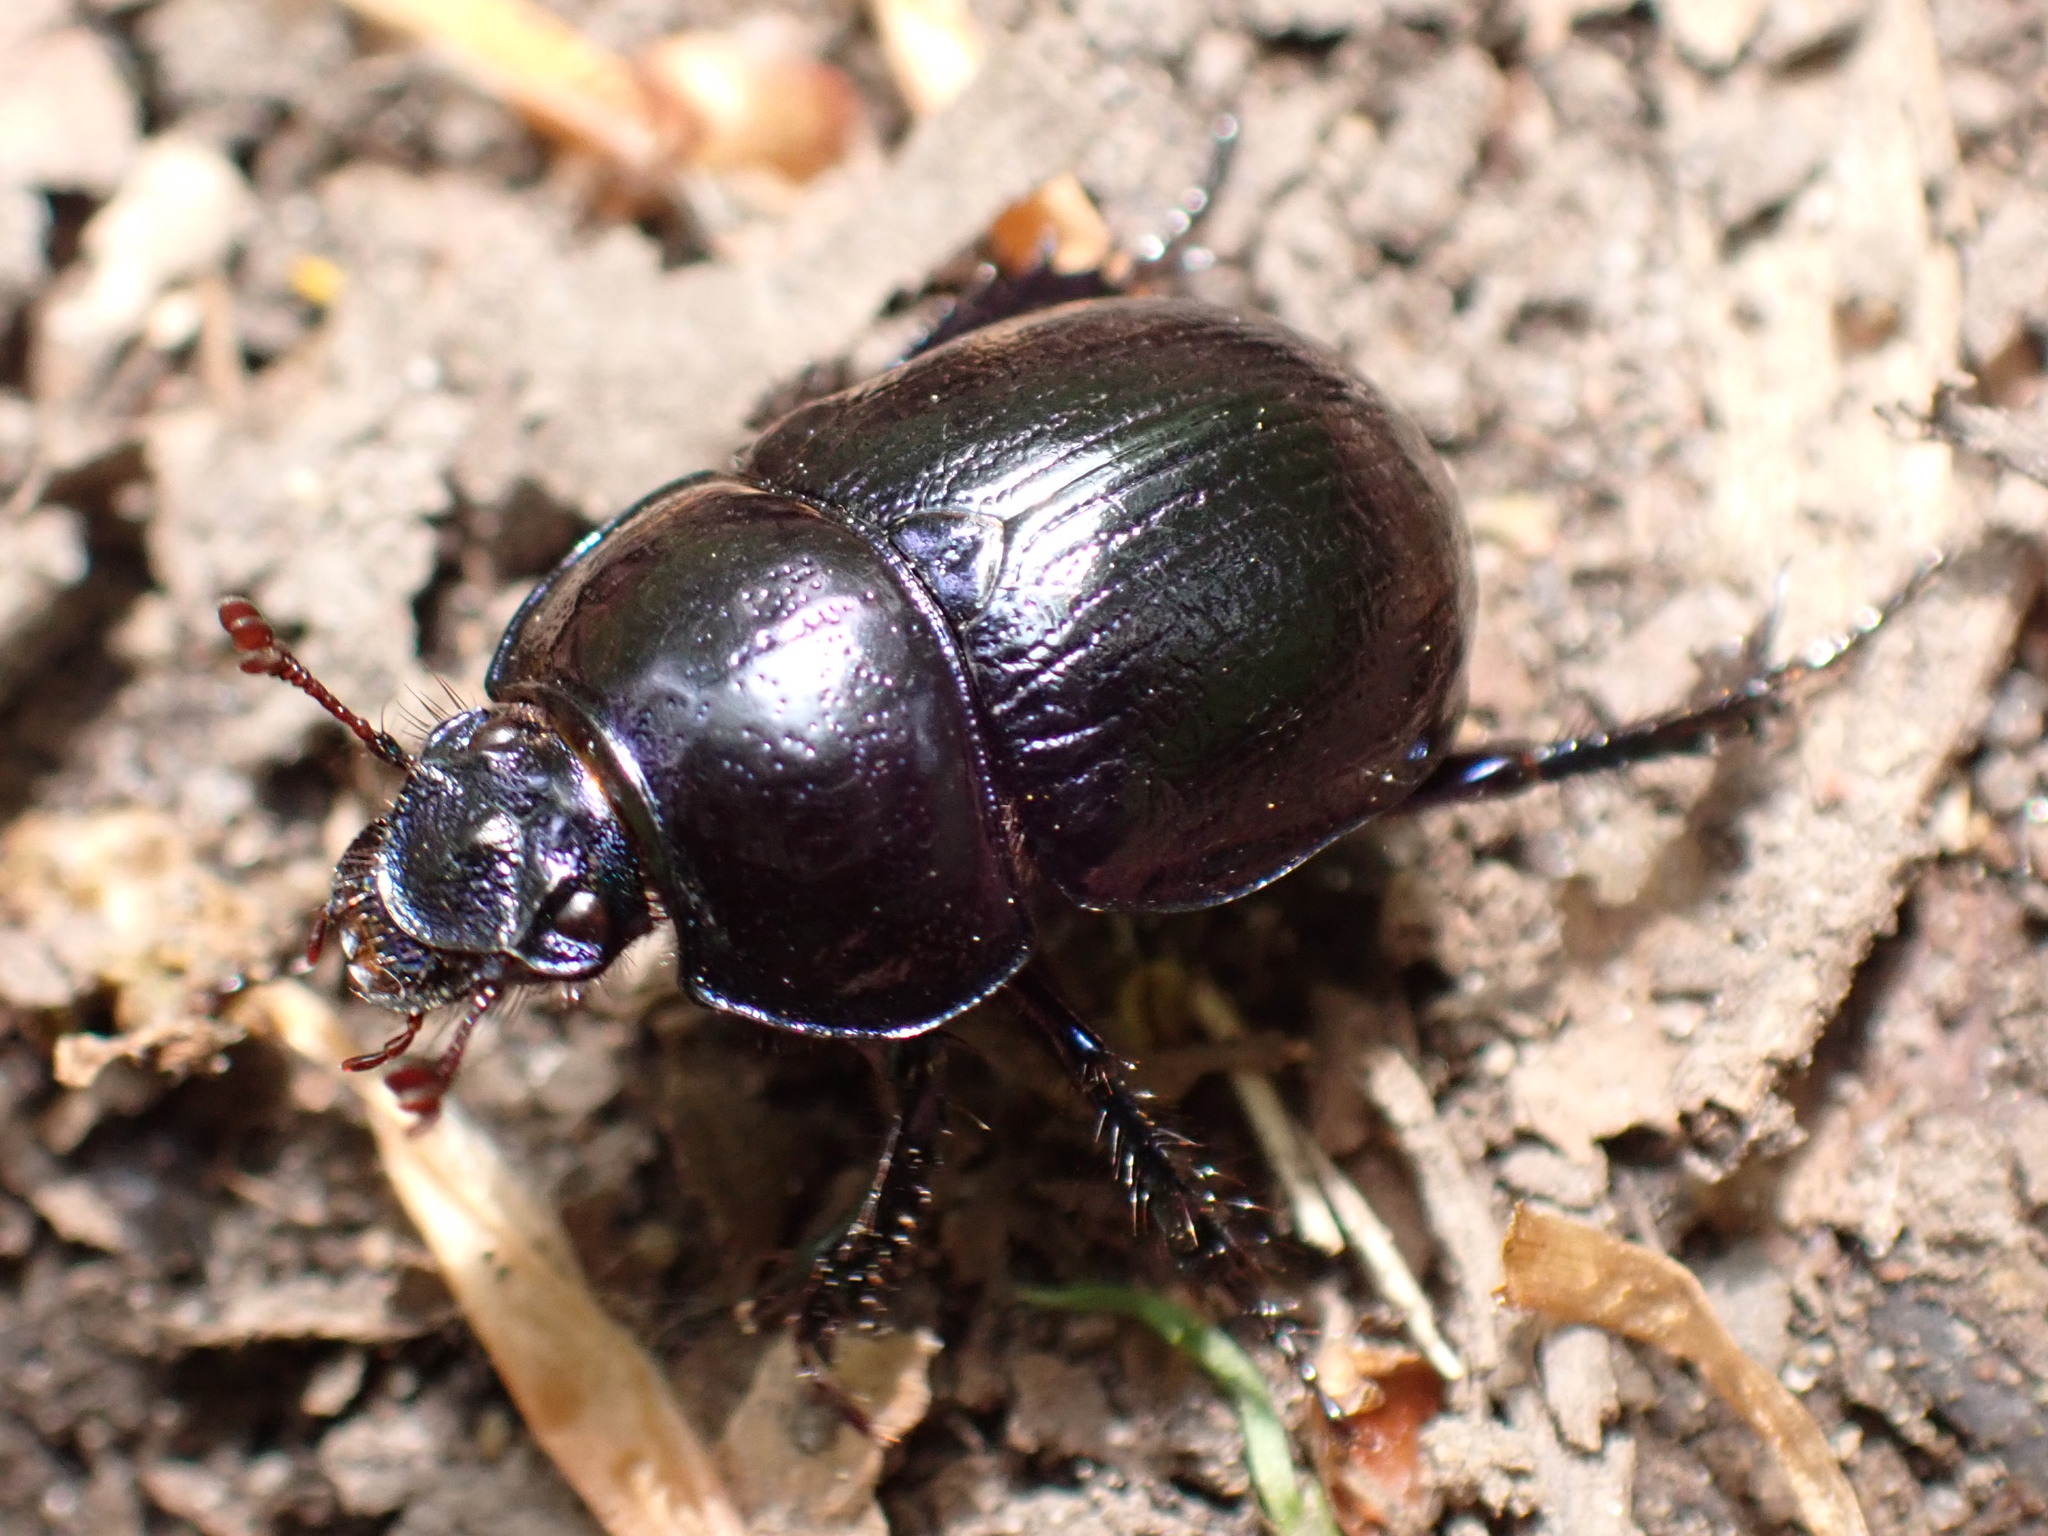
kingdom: Animalia
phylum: Arthropoda
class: Insecta
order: Coleoptera
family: Geotrupidae
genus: Anoplotrupes
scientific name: Anoplotrupes stercorosus
